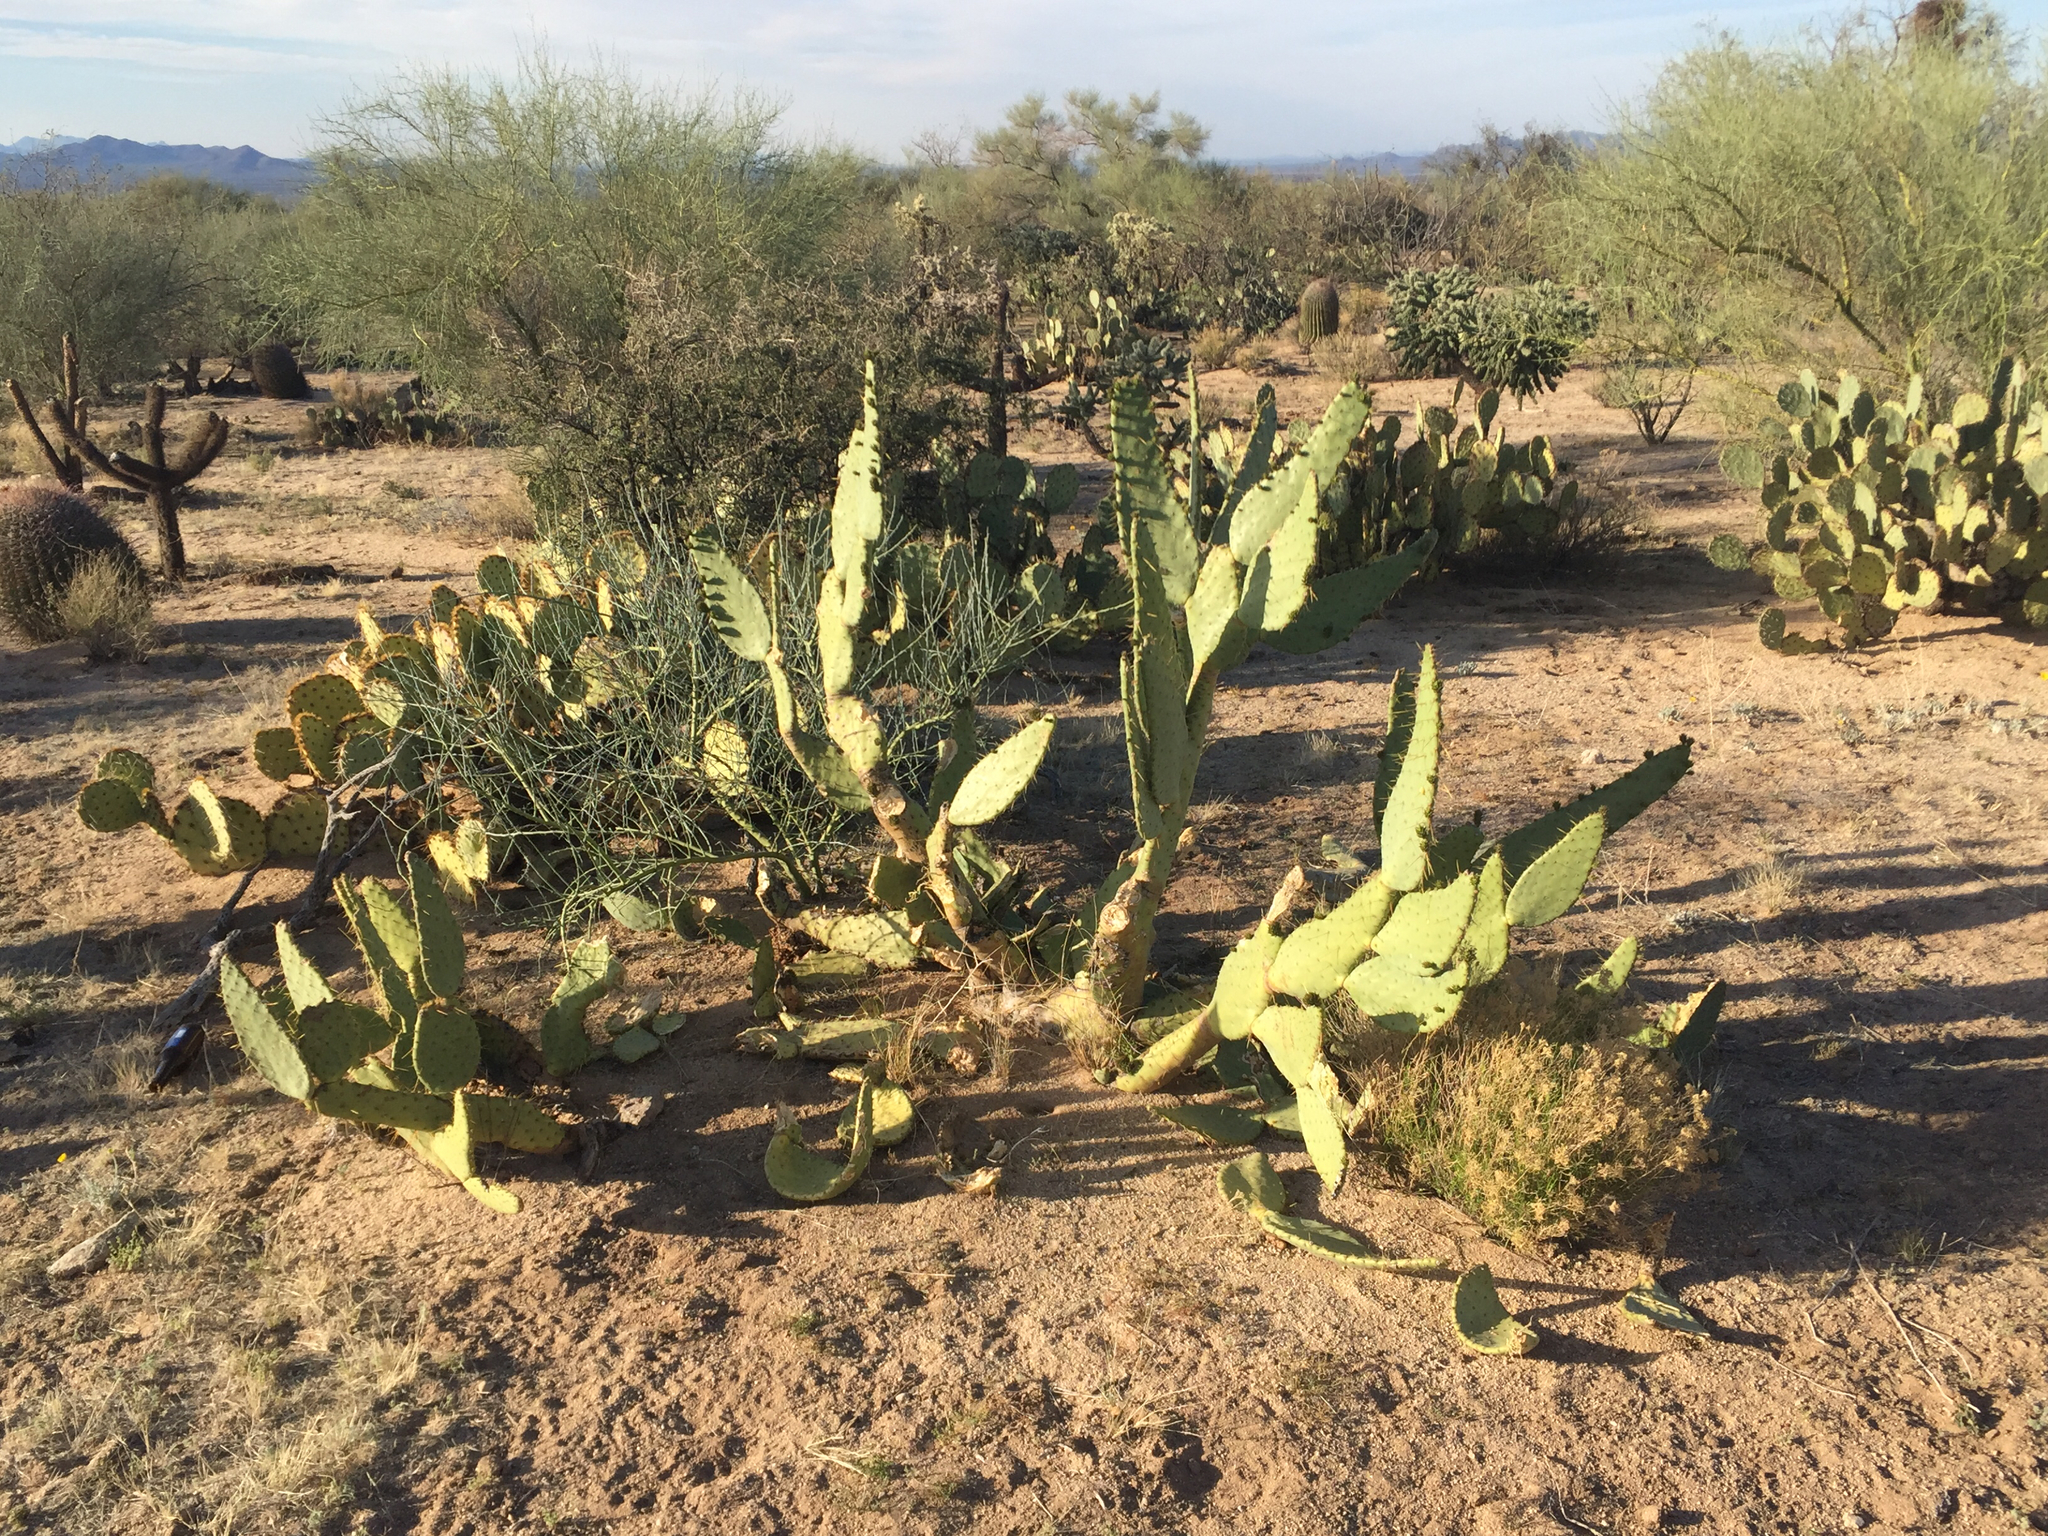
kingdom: Plantae
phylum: Tracheophyta
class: Magnoliopsida
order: Caryophyllales
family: Cactaceae
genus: Opuntia
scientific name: Opuntia engelmannii
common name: Cactus-apple
